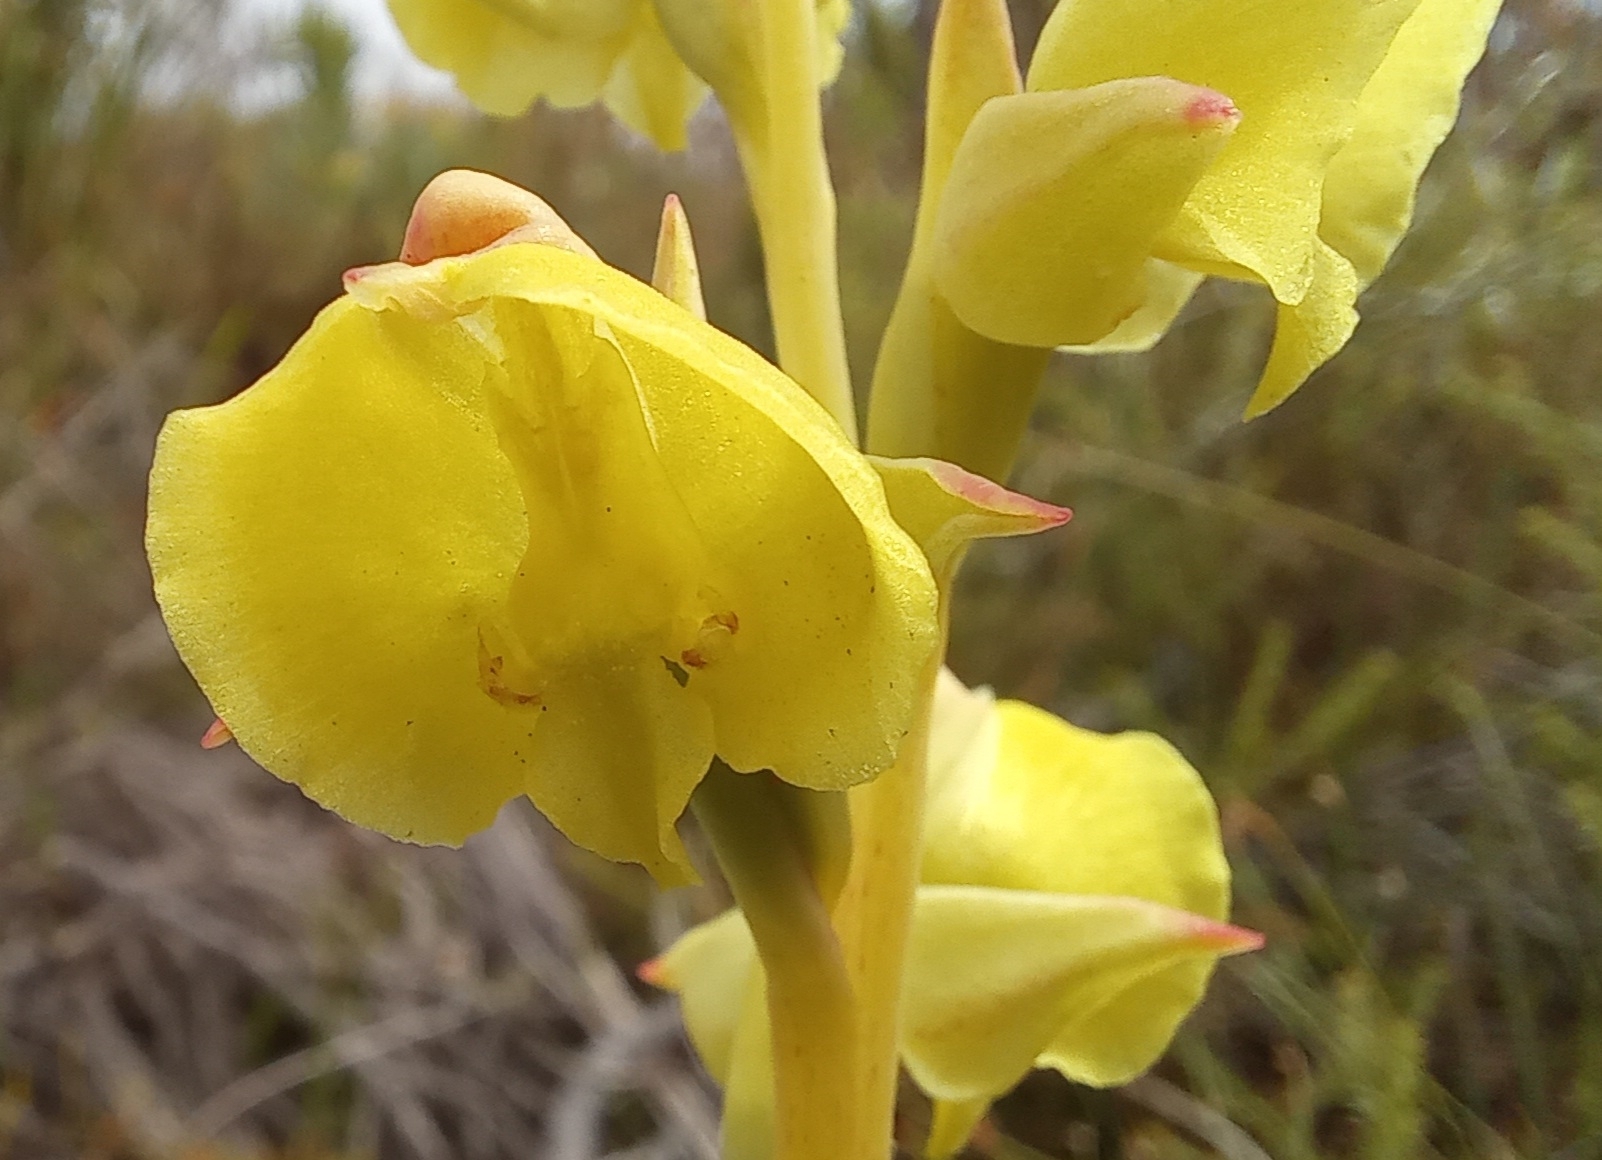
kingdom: Plantae
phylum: Tracheophyta
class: Liliopsida
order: Asparagales
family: Orchidaceae
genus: Pterygodium
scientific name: Pterygodium catholicum
